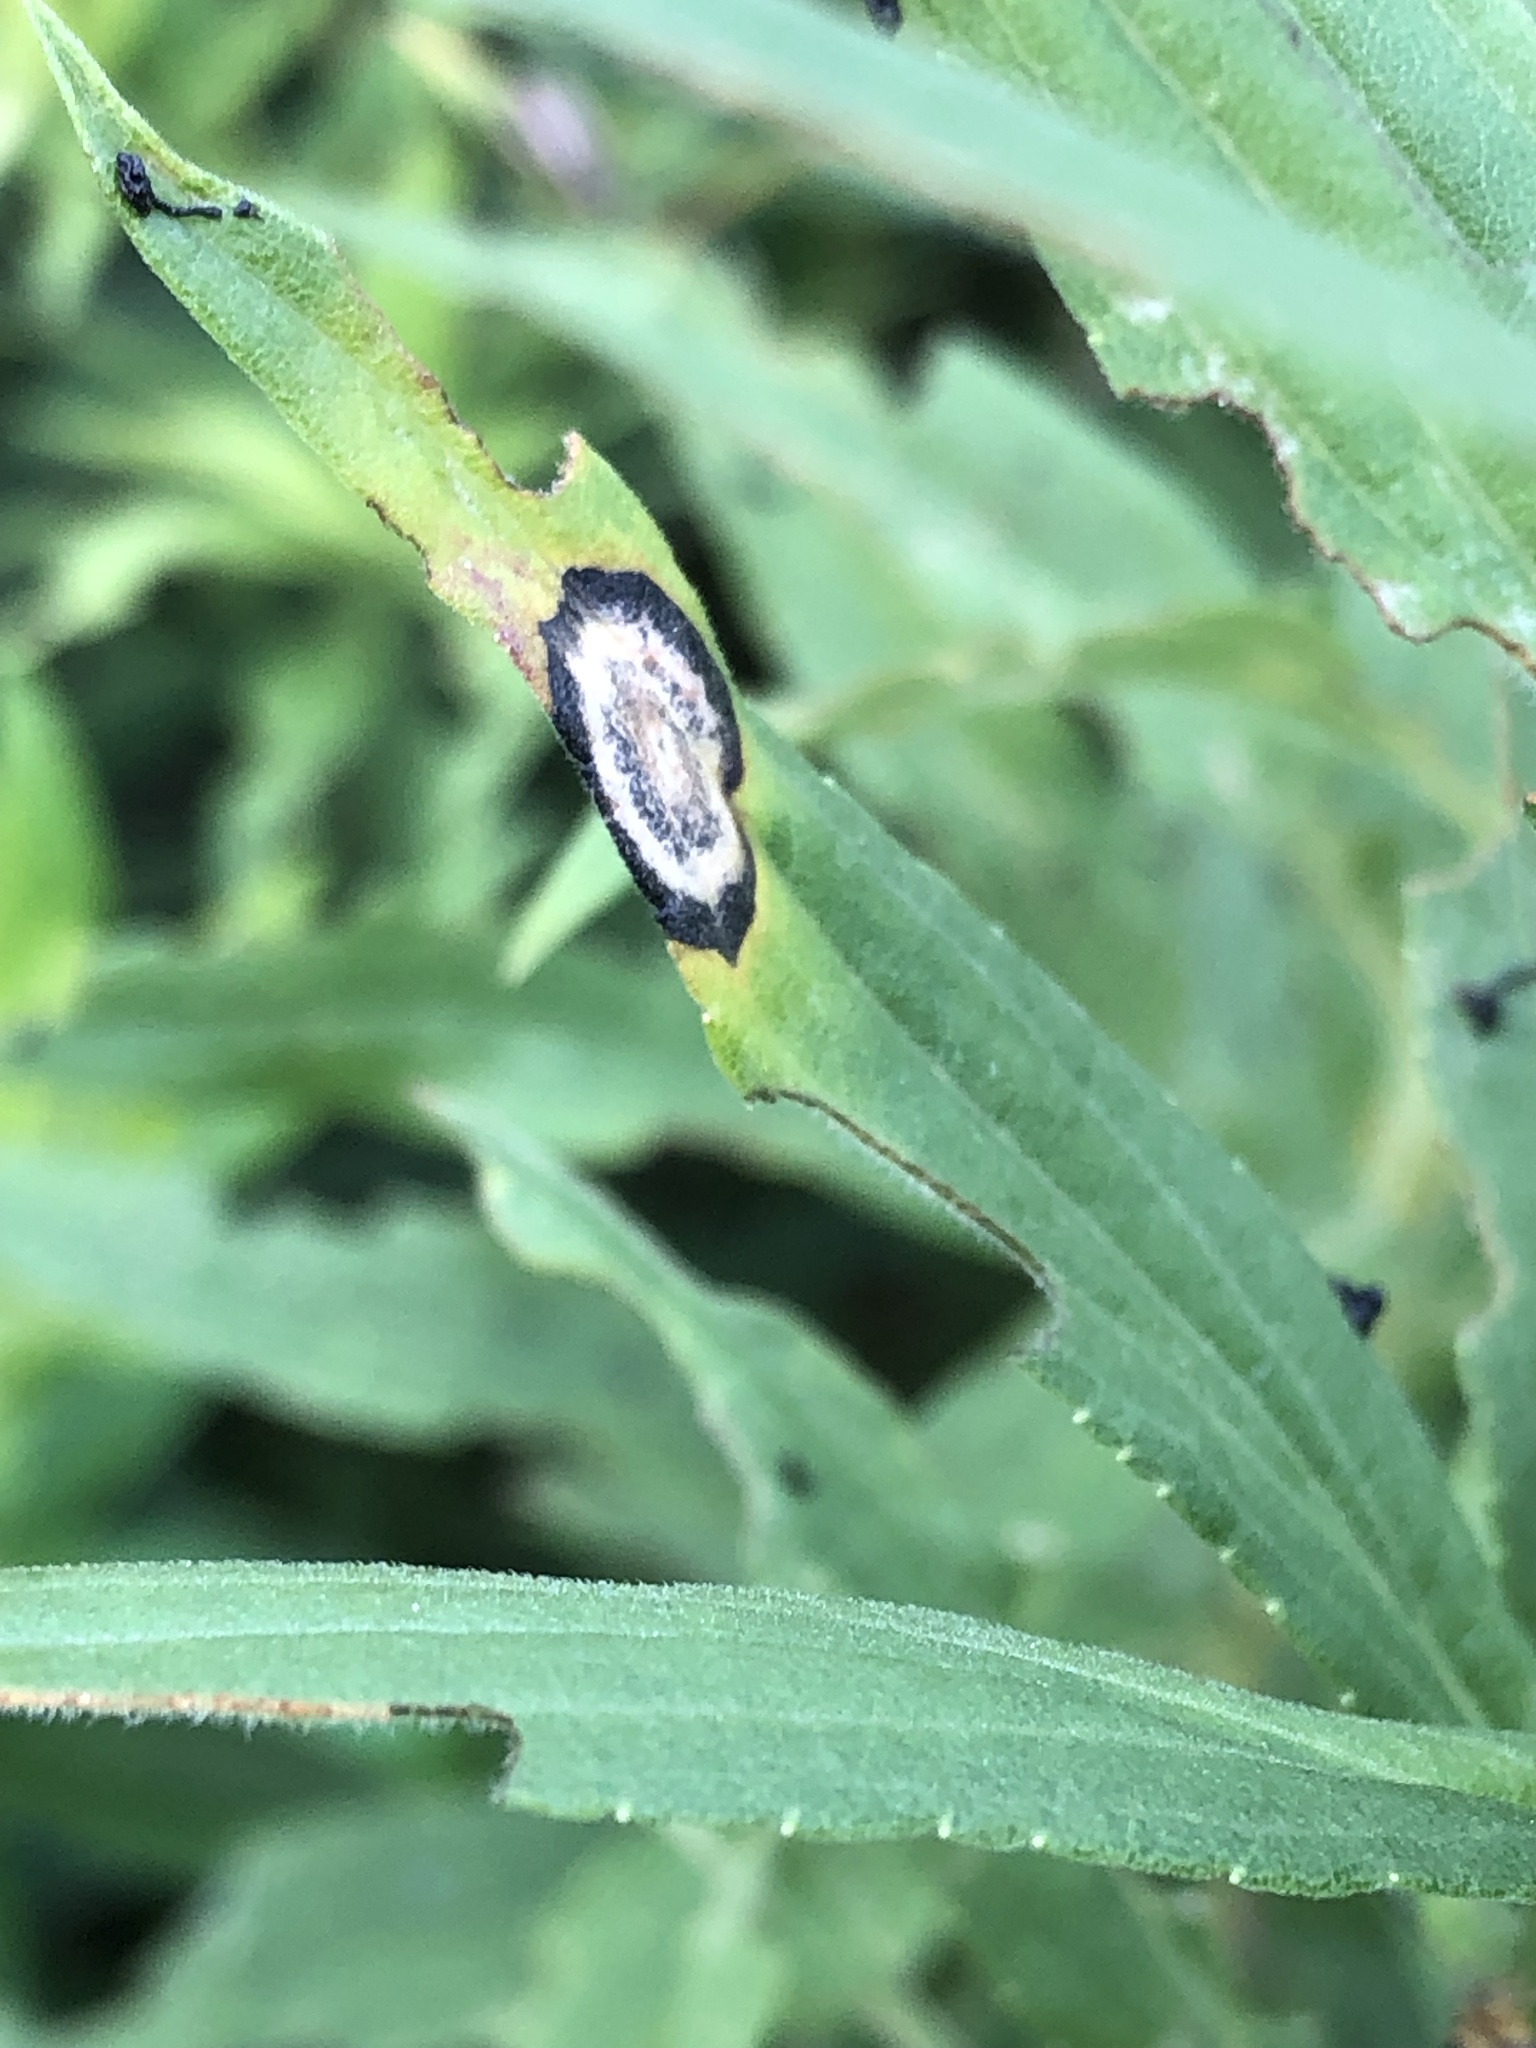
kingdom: Animalia
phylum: Arthropoda
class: Insecta
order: Diptera
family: Cecidomyiidae
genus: Asteromyia
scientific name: Asteromyia carbonifera
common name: Carbonifera goldenrod gall midge
